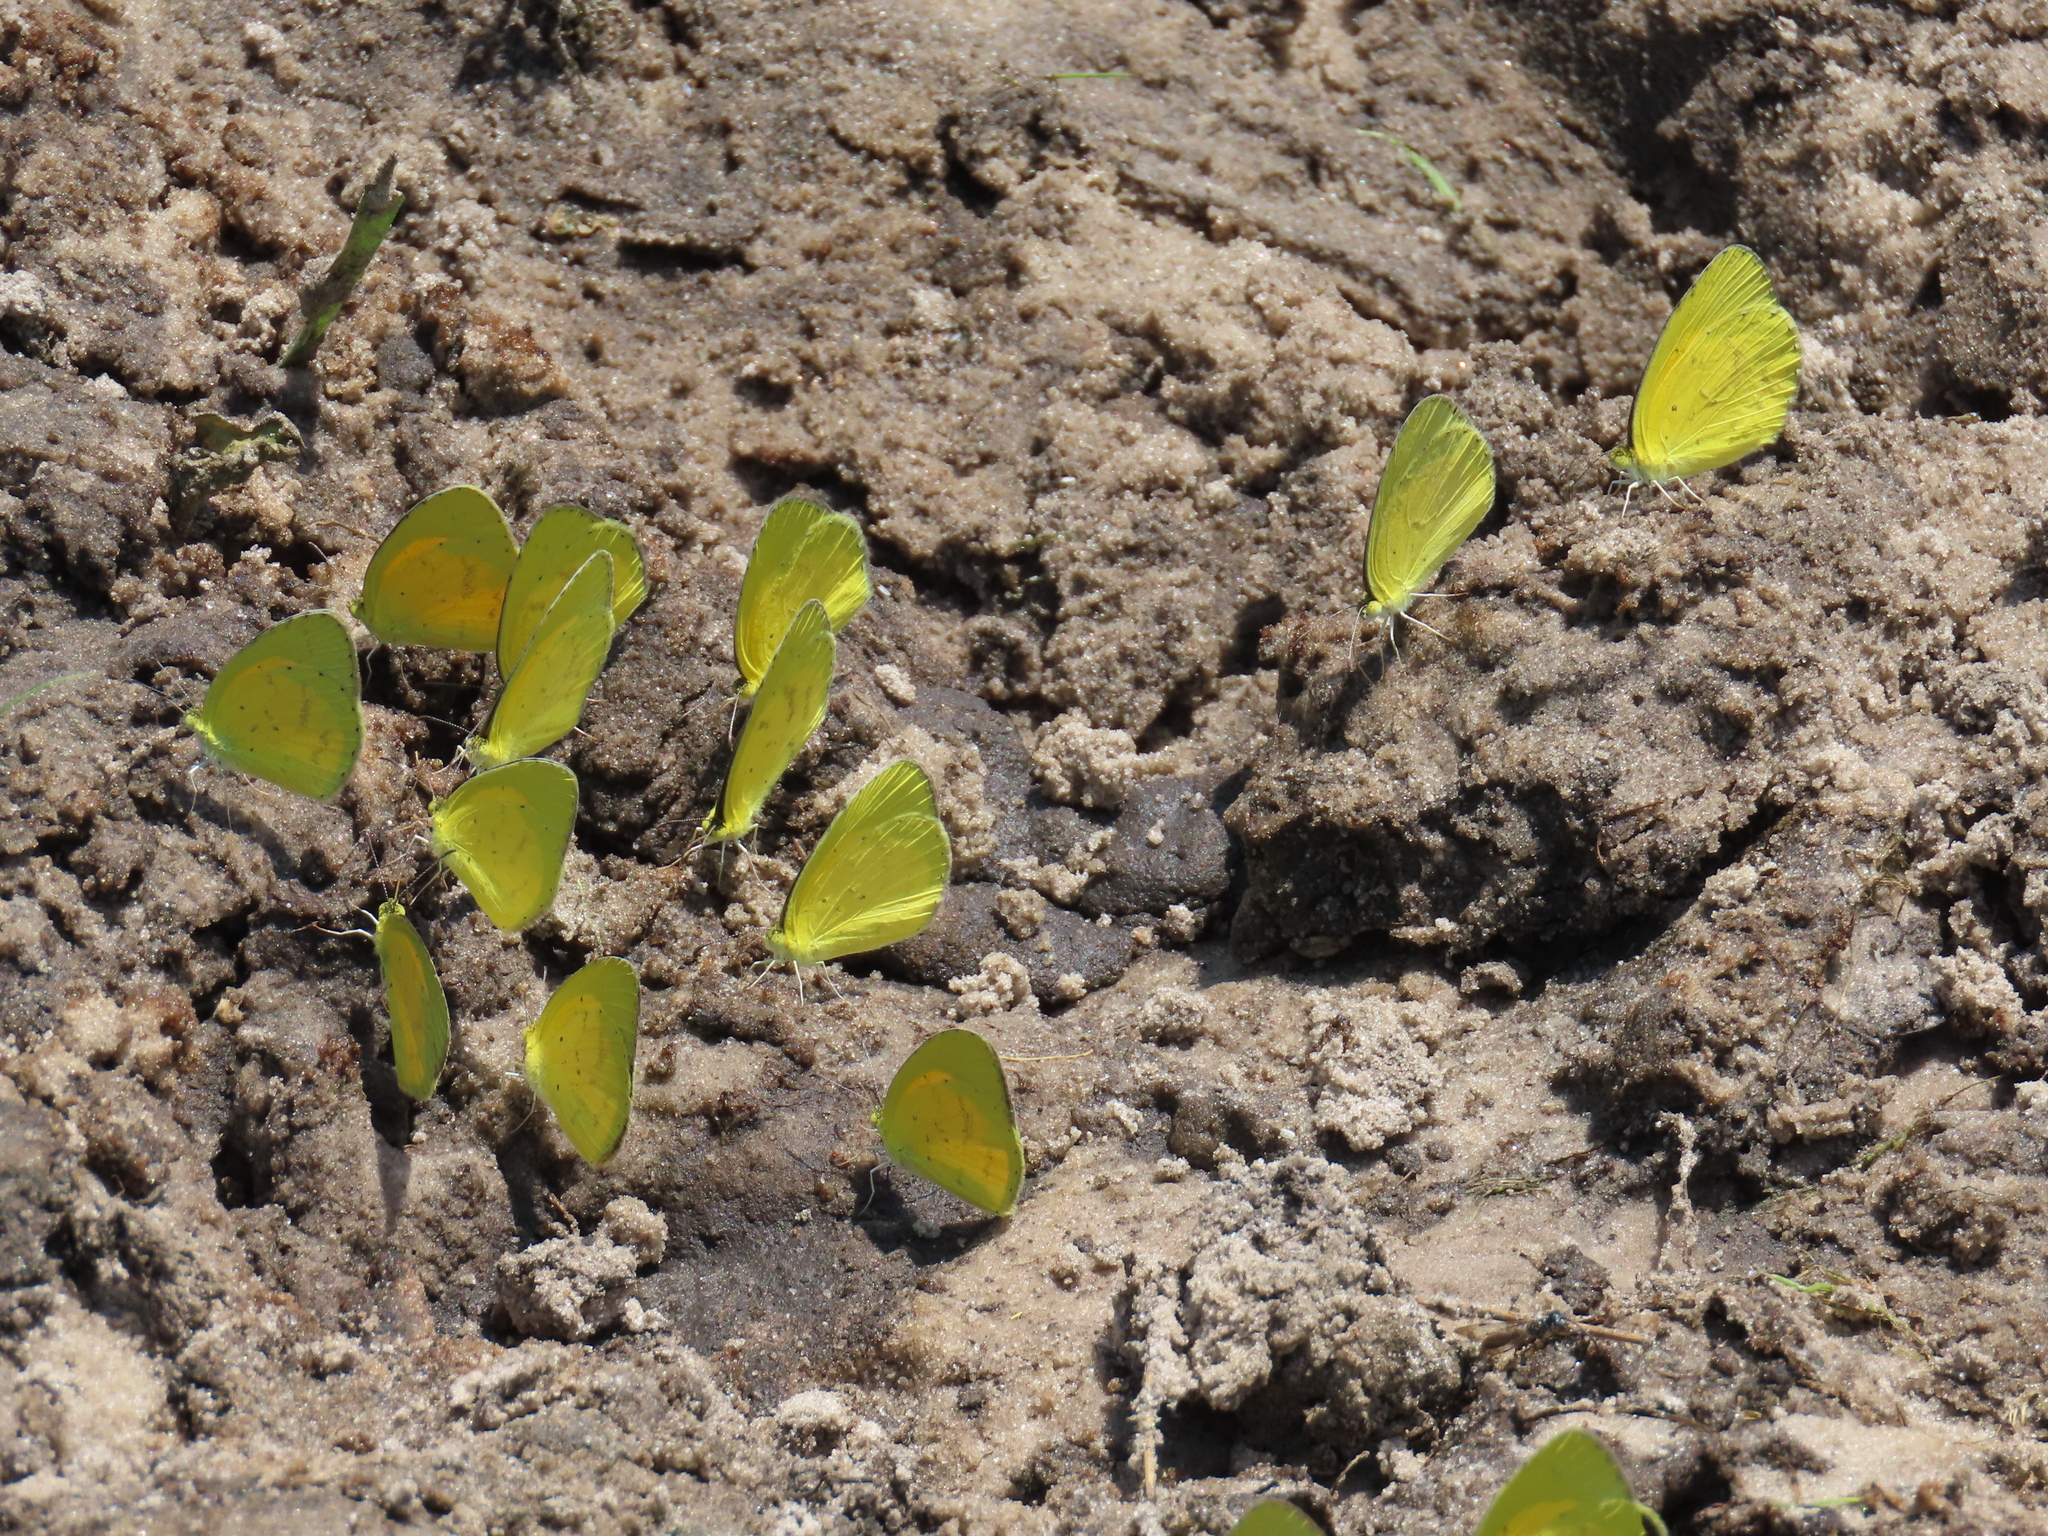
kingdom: Animalia
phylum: Arthropoda
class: Insecta
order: Lepidoptera
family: Pieridae
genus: Terias
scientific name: Terias
